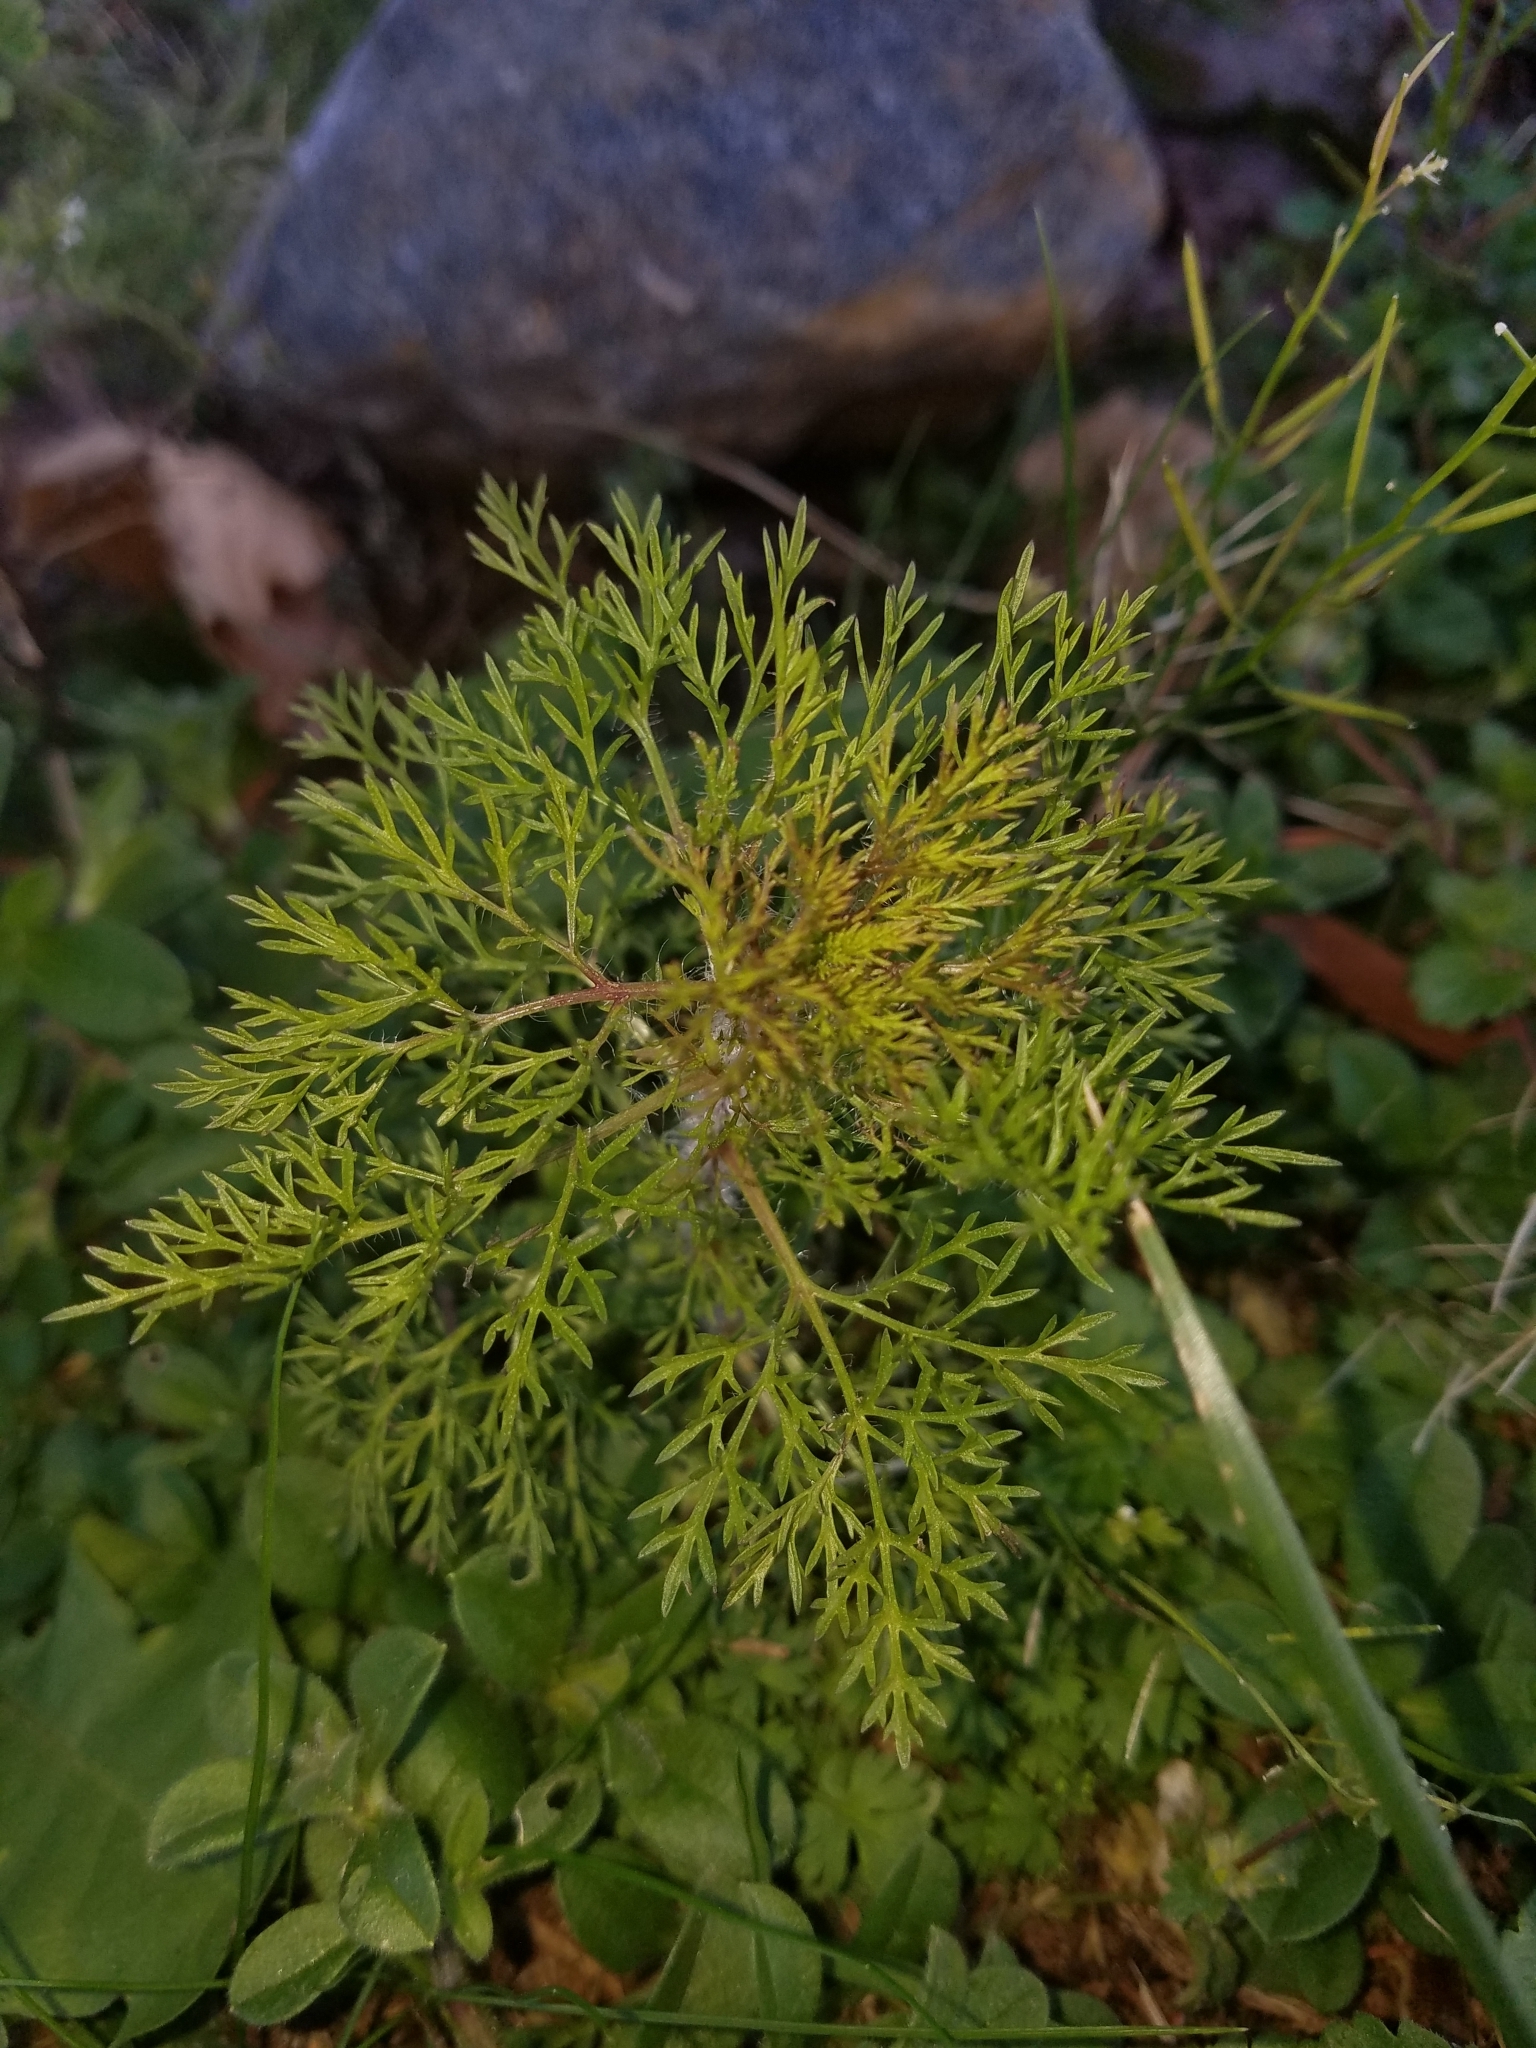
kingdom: Plantae
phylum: Tracheophyta
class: Magnoliopsida
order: Asterales
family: Asteraceae
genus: Eupatorium
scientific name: Eupatorium capillifolium
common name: Dog-fennel
